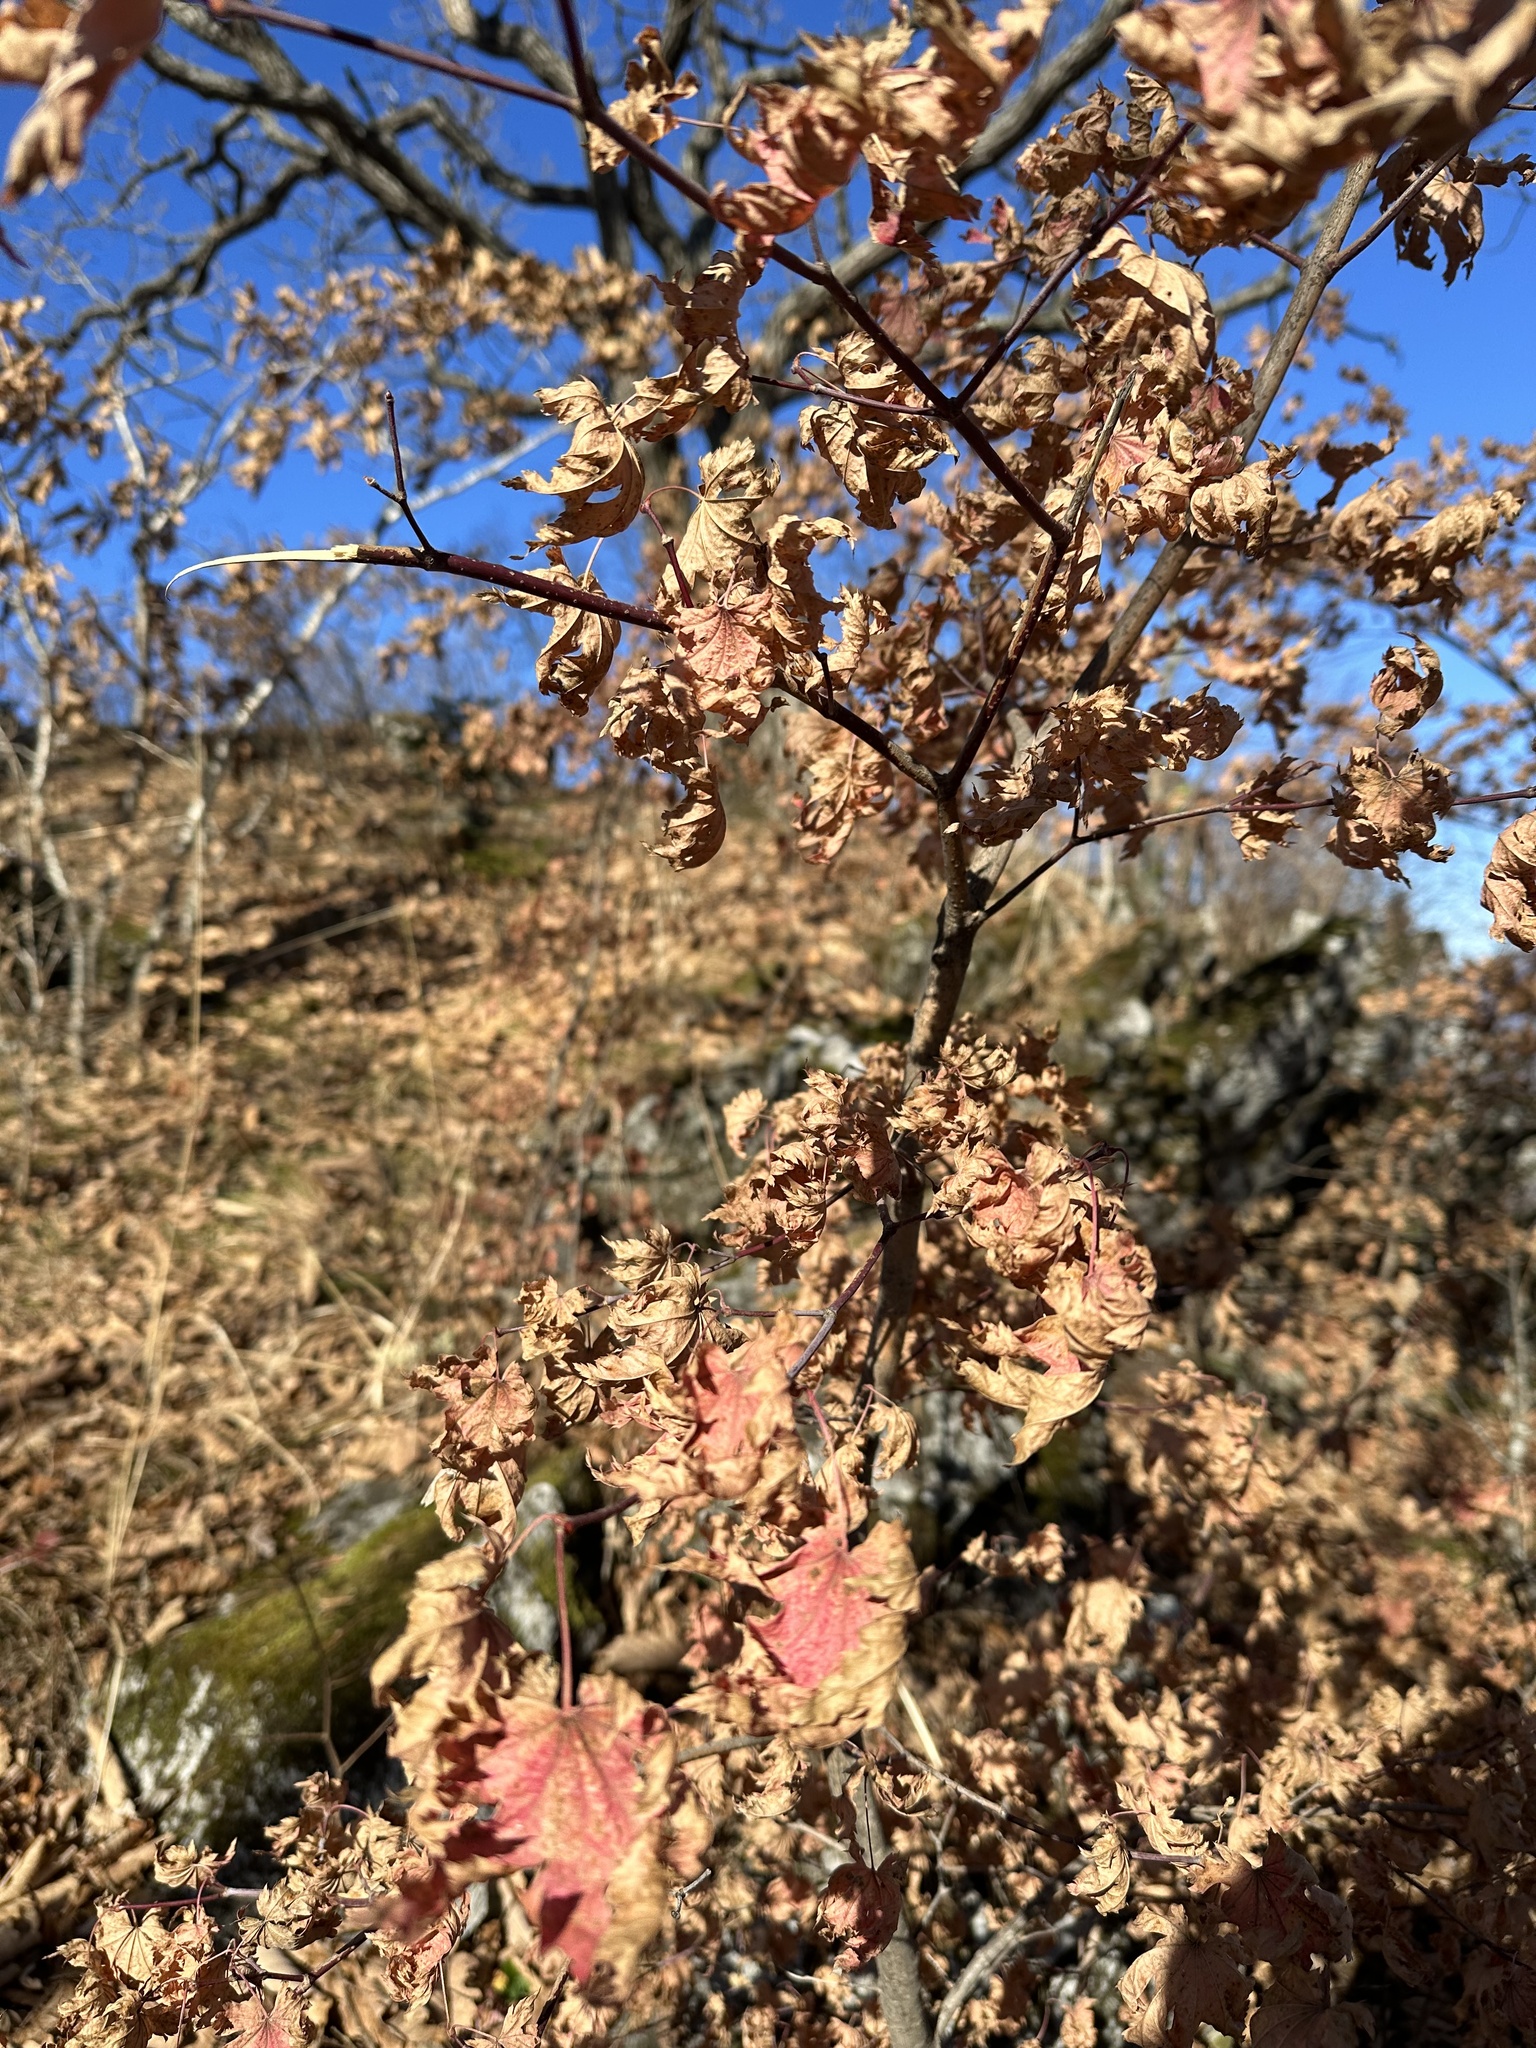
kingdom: Plantae
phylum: Tracheophyta
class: Magnoliopsida
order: Sapindales
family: Sapindaceae
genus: Acer
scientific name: Acer pseudosieboldianum
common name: Korean maple
